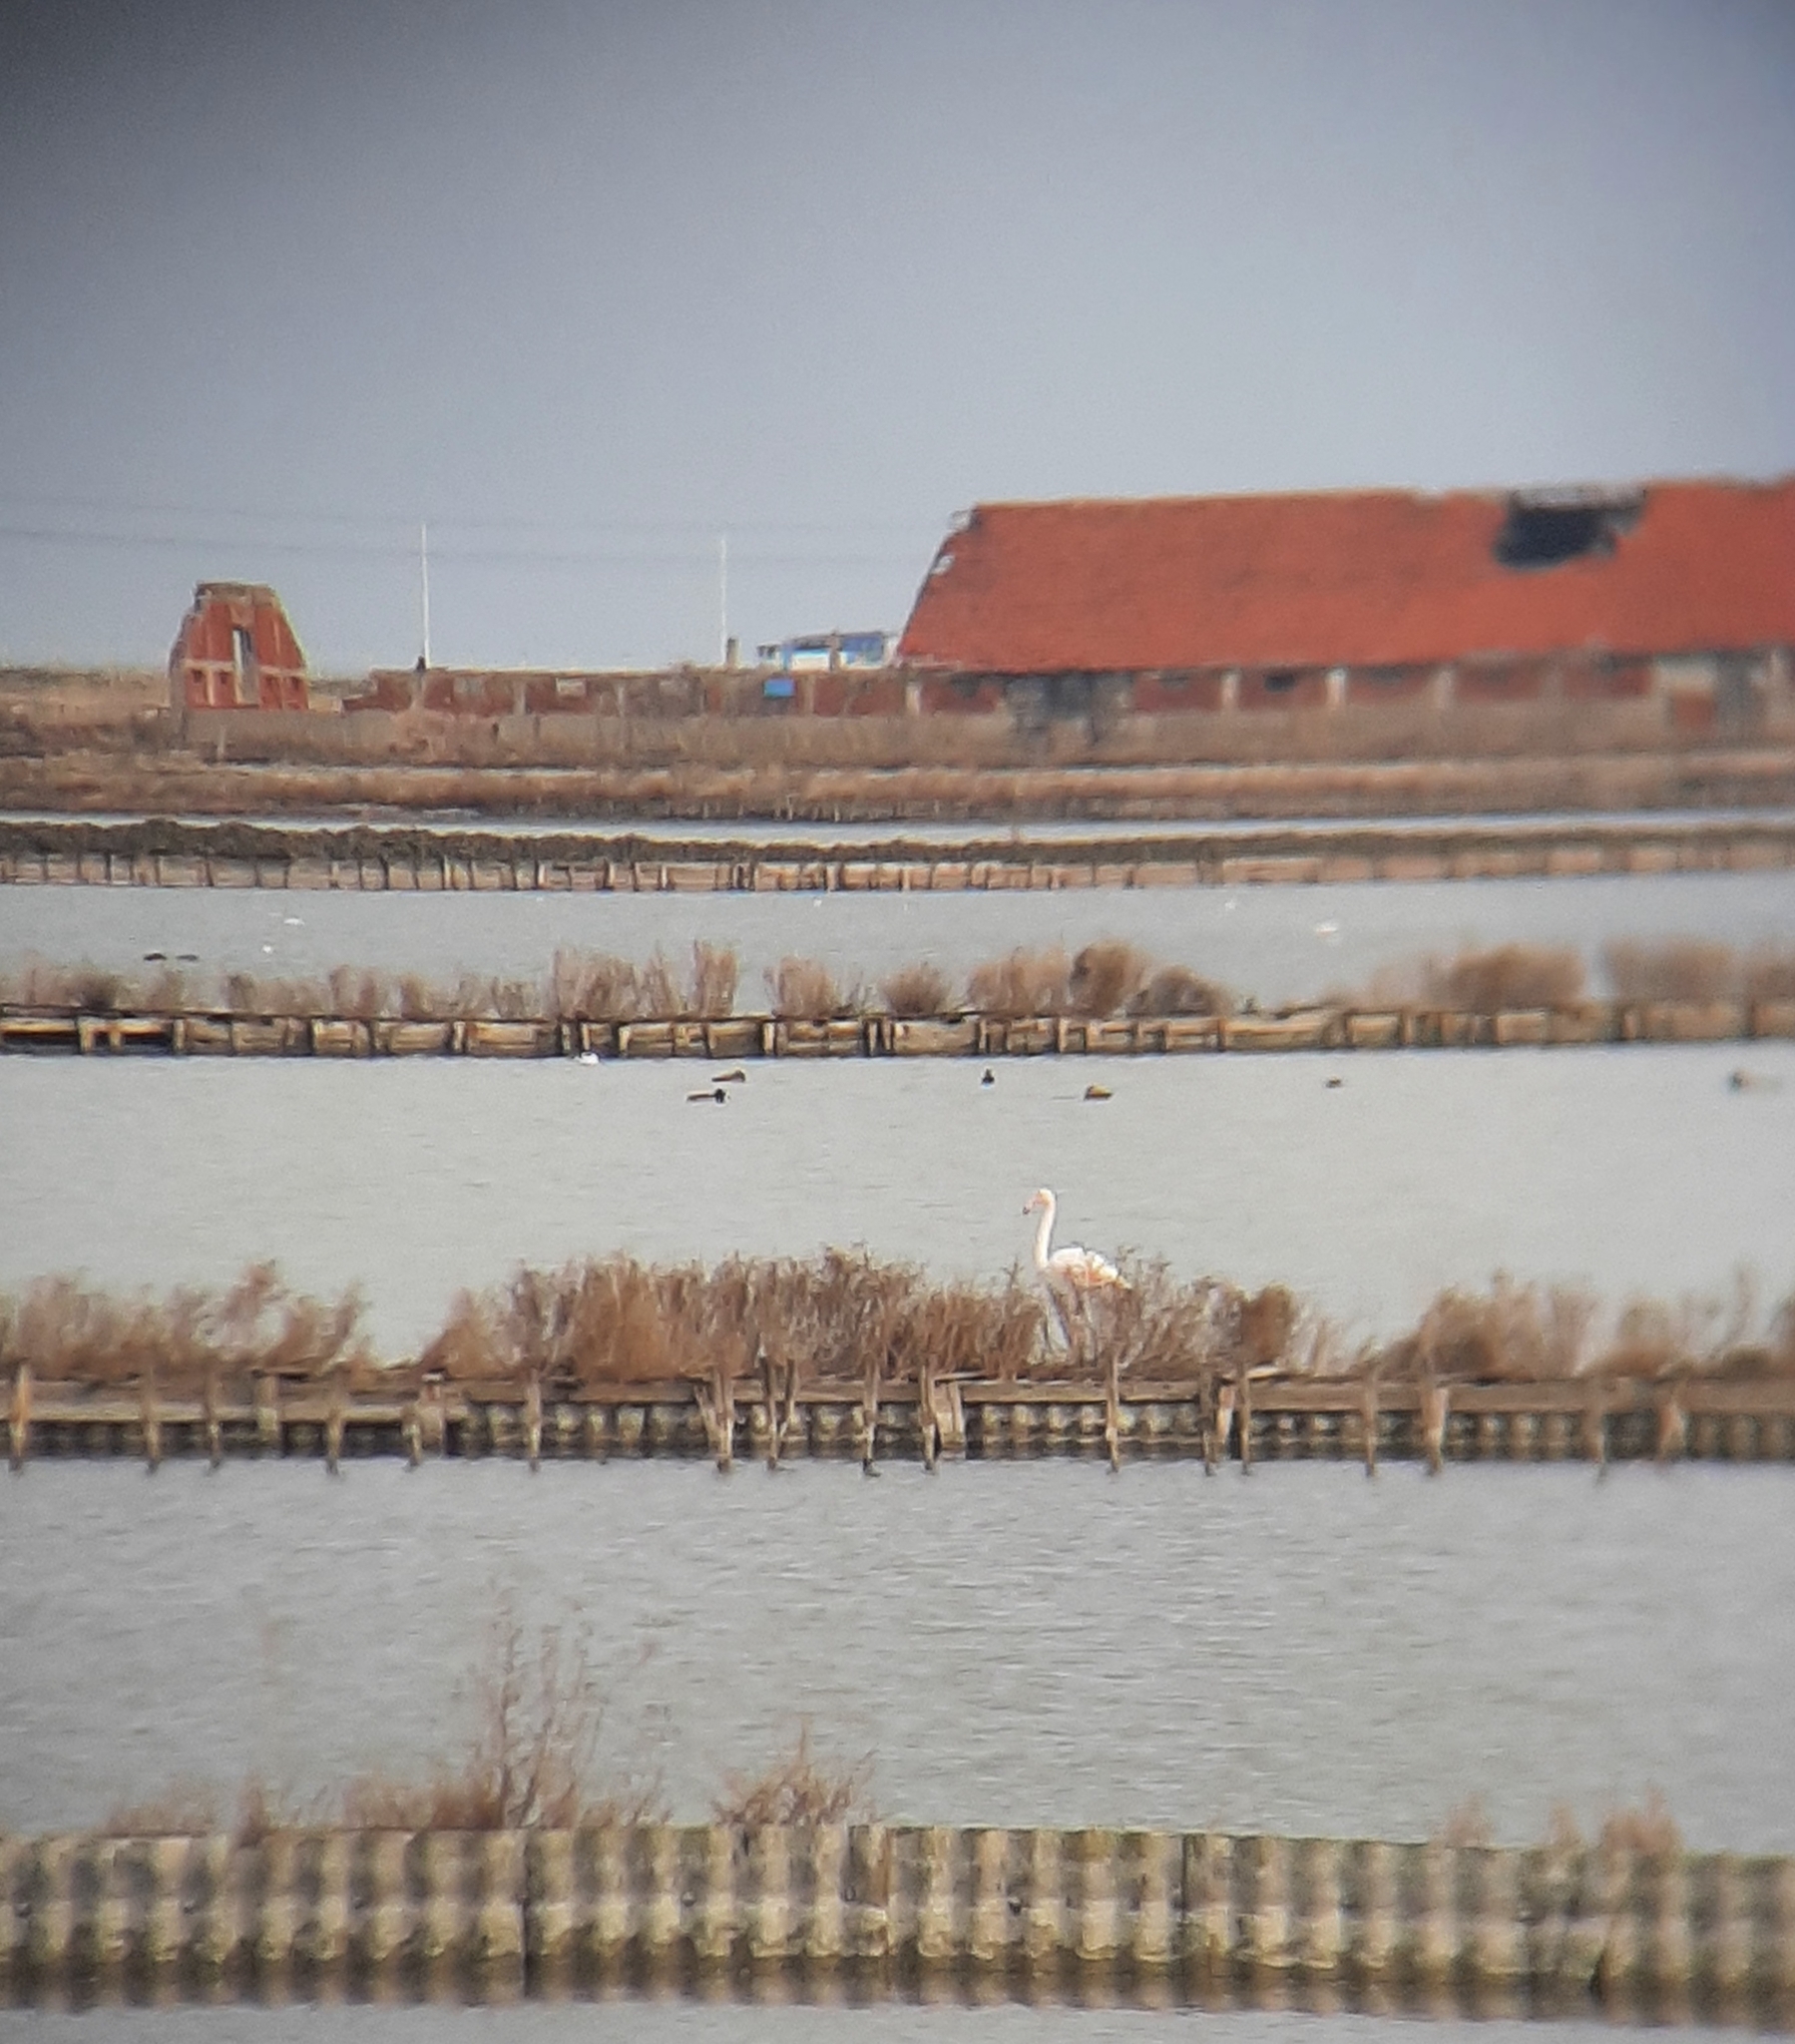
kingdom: Animalia
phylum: Chordata
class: Aves
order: Phoenicopteriformes
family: Phoenicopteridae
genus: Phoenicopterus
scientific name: Phoenicopterus roseus
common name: Greater flamingo
